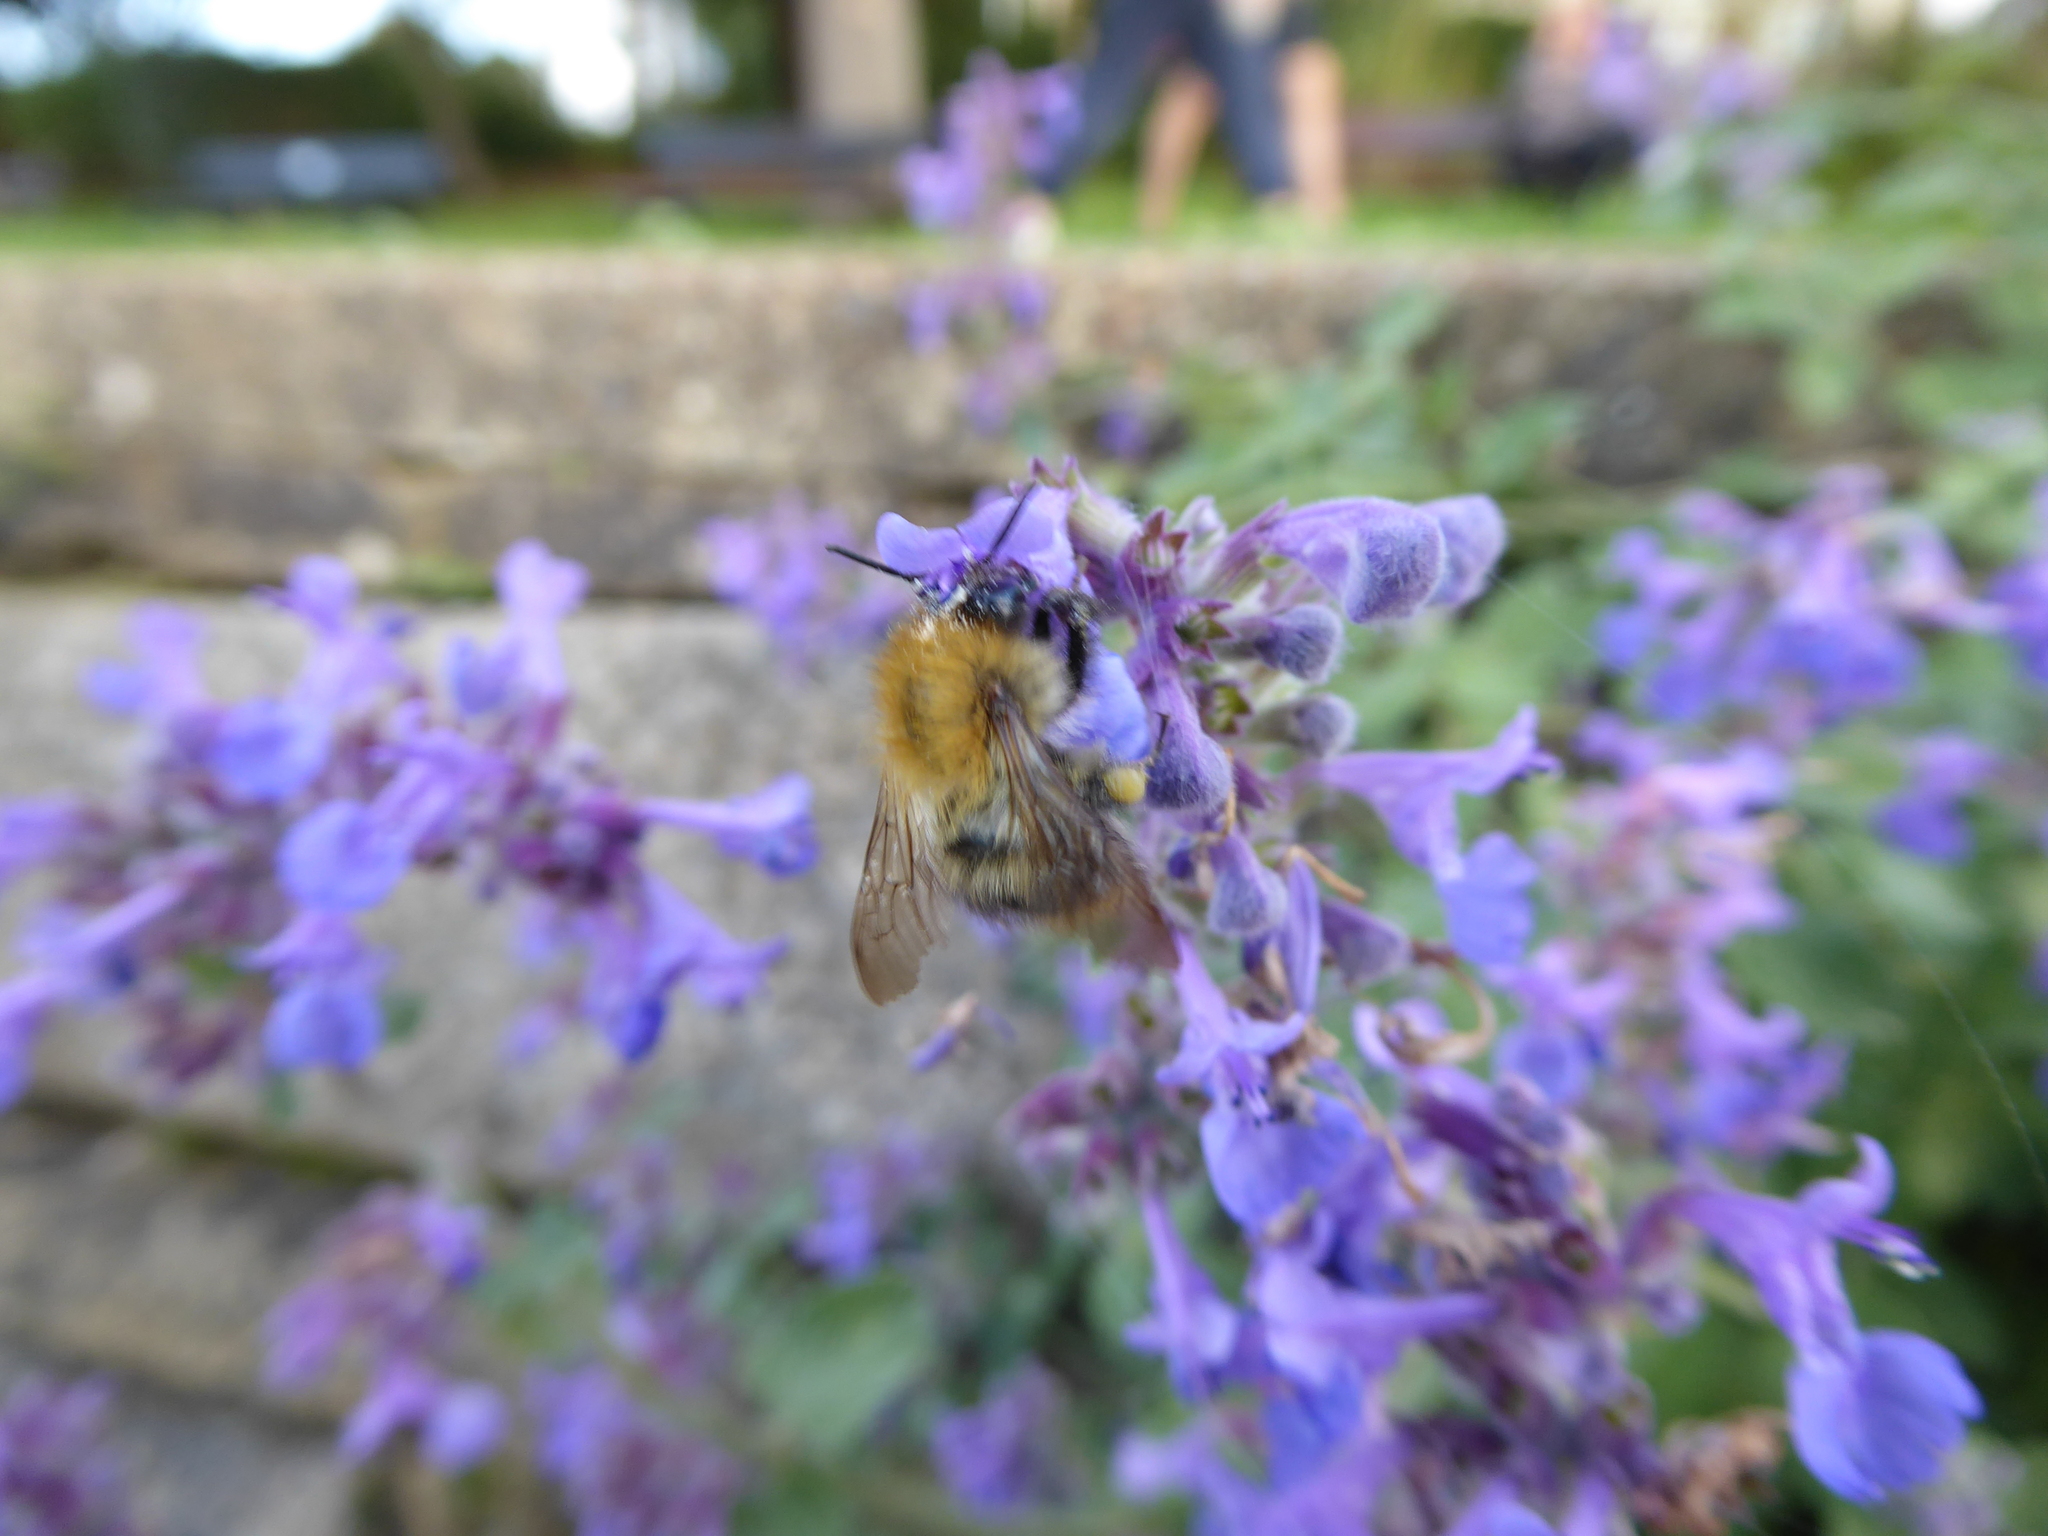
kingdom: Animalia
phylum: Arthropoda
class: Insecta
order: Hymenoptera
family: Apidae
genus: Bombus
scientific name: Bombus pascuorum
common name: Common carder bee
